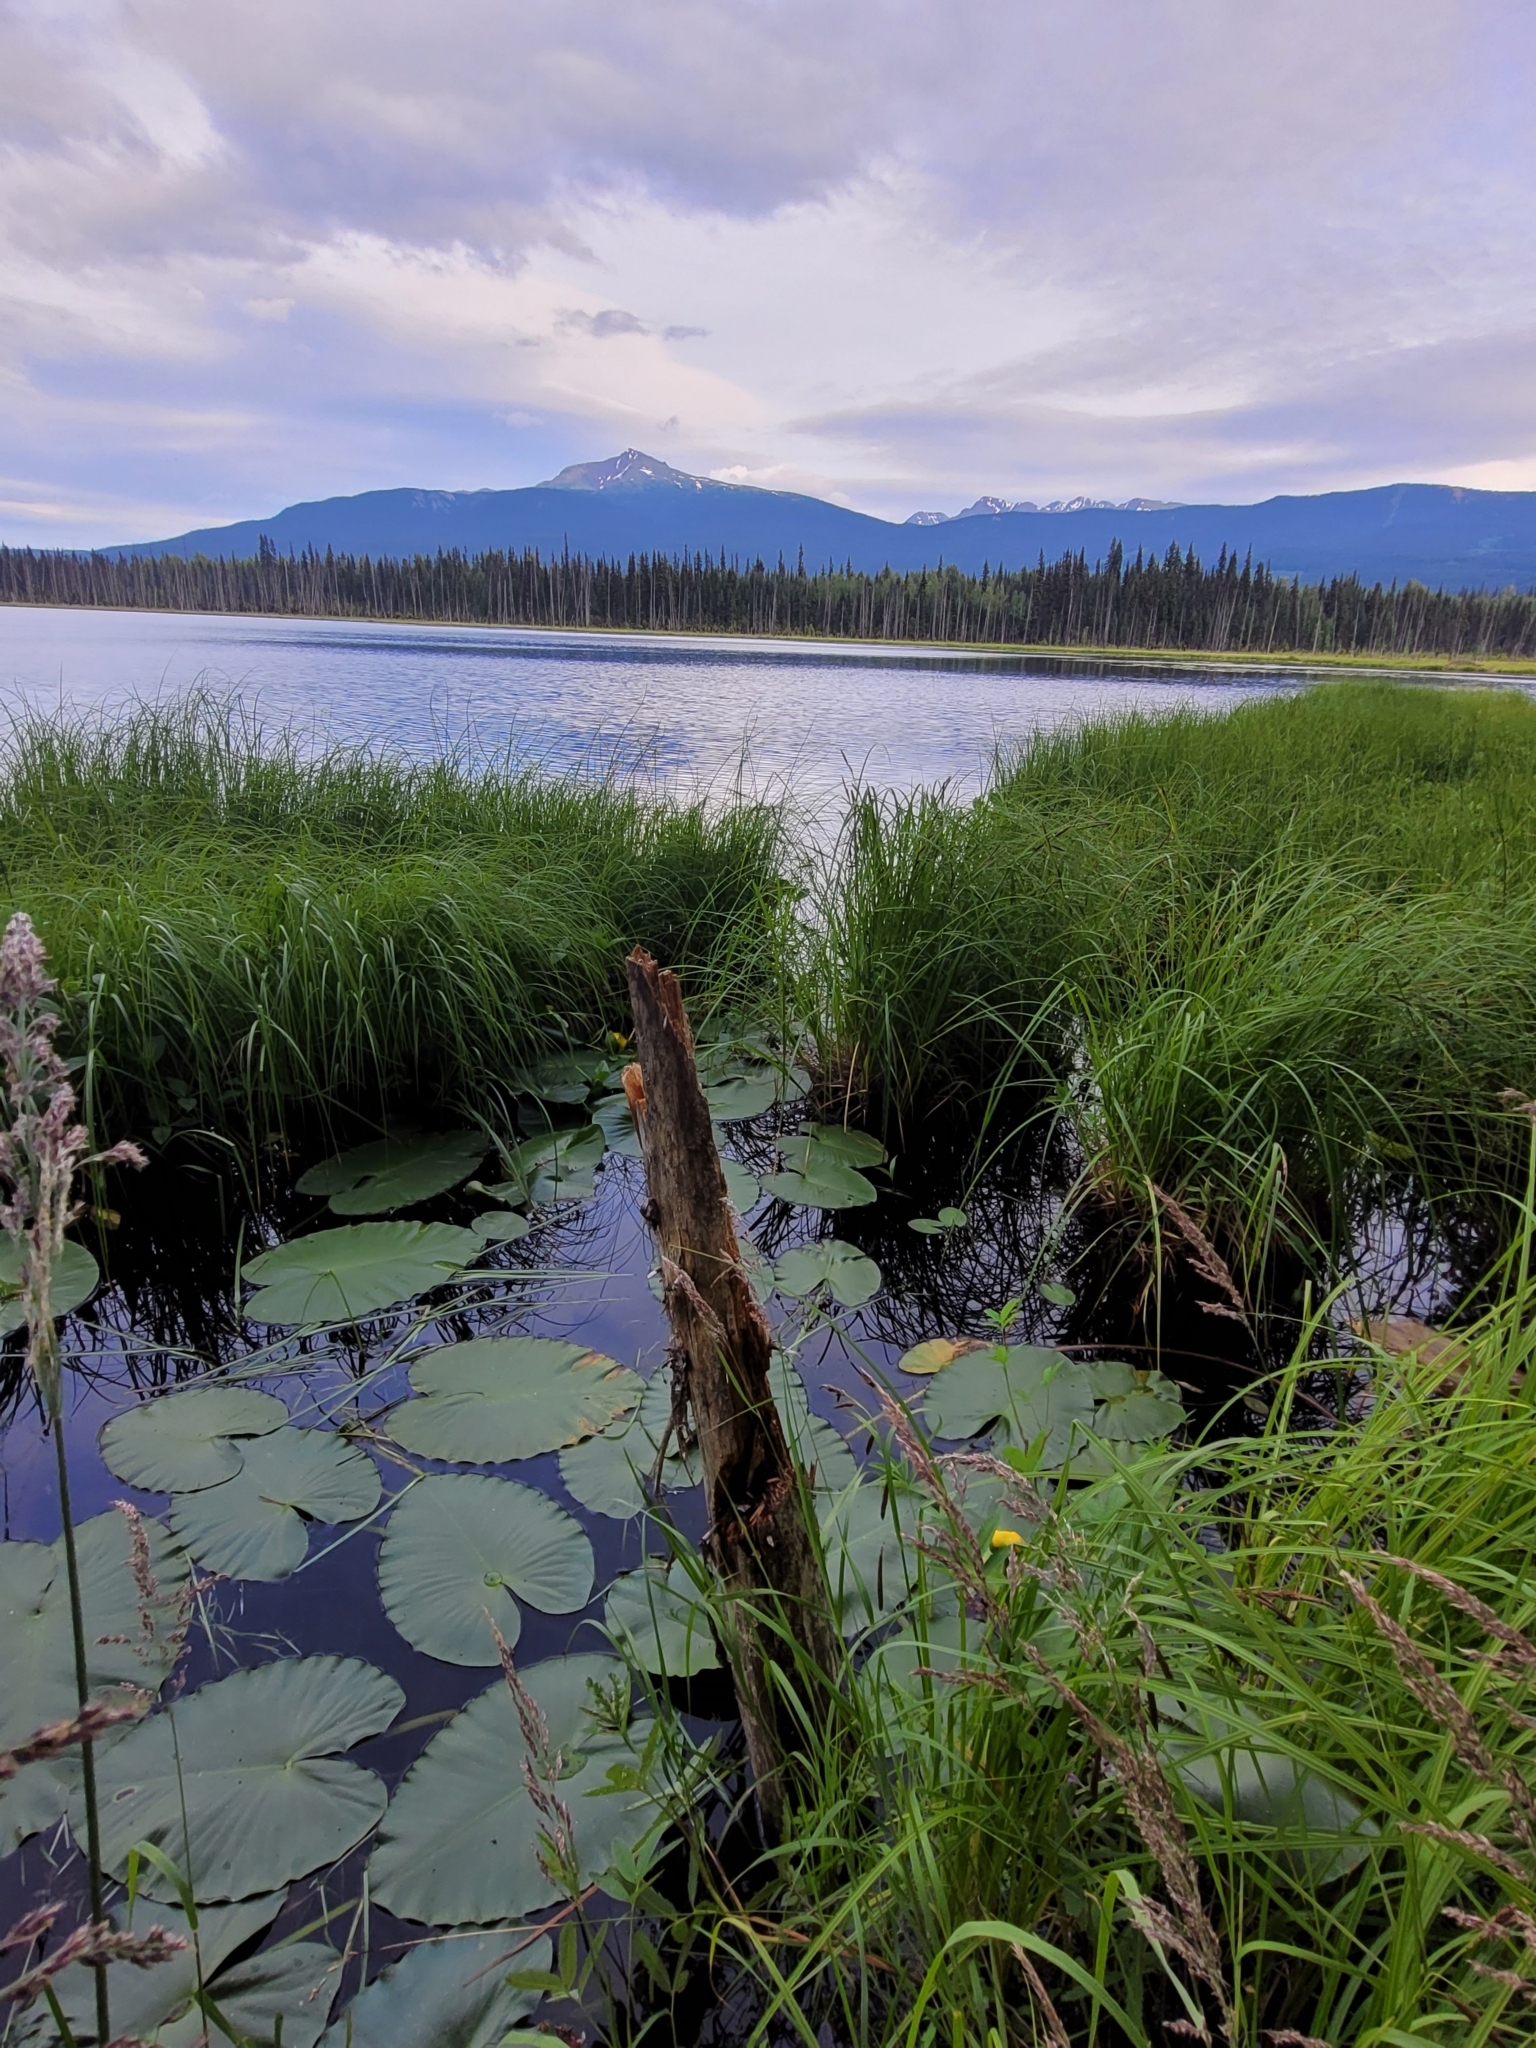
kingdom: Plantae
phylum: Tracheophyta
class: Magnoliopsida
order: Nymphaeales
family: Nymphaeaceae
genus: Nuphar
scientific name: Nuphar polysepala
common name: Rocky mountain cow-lily
